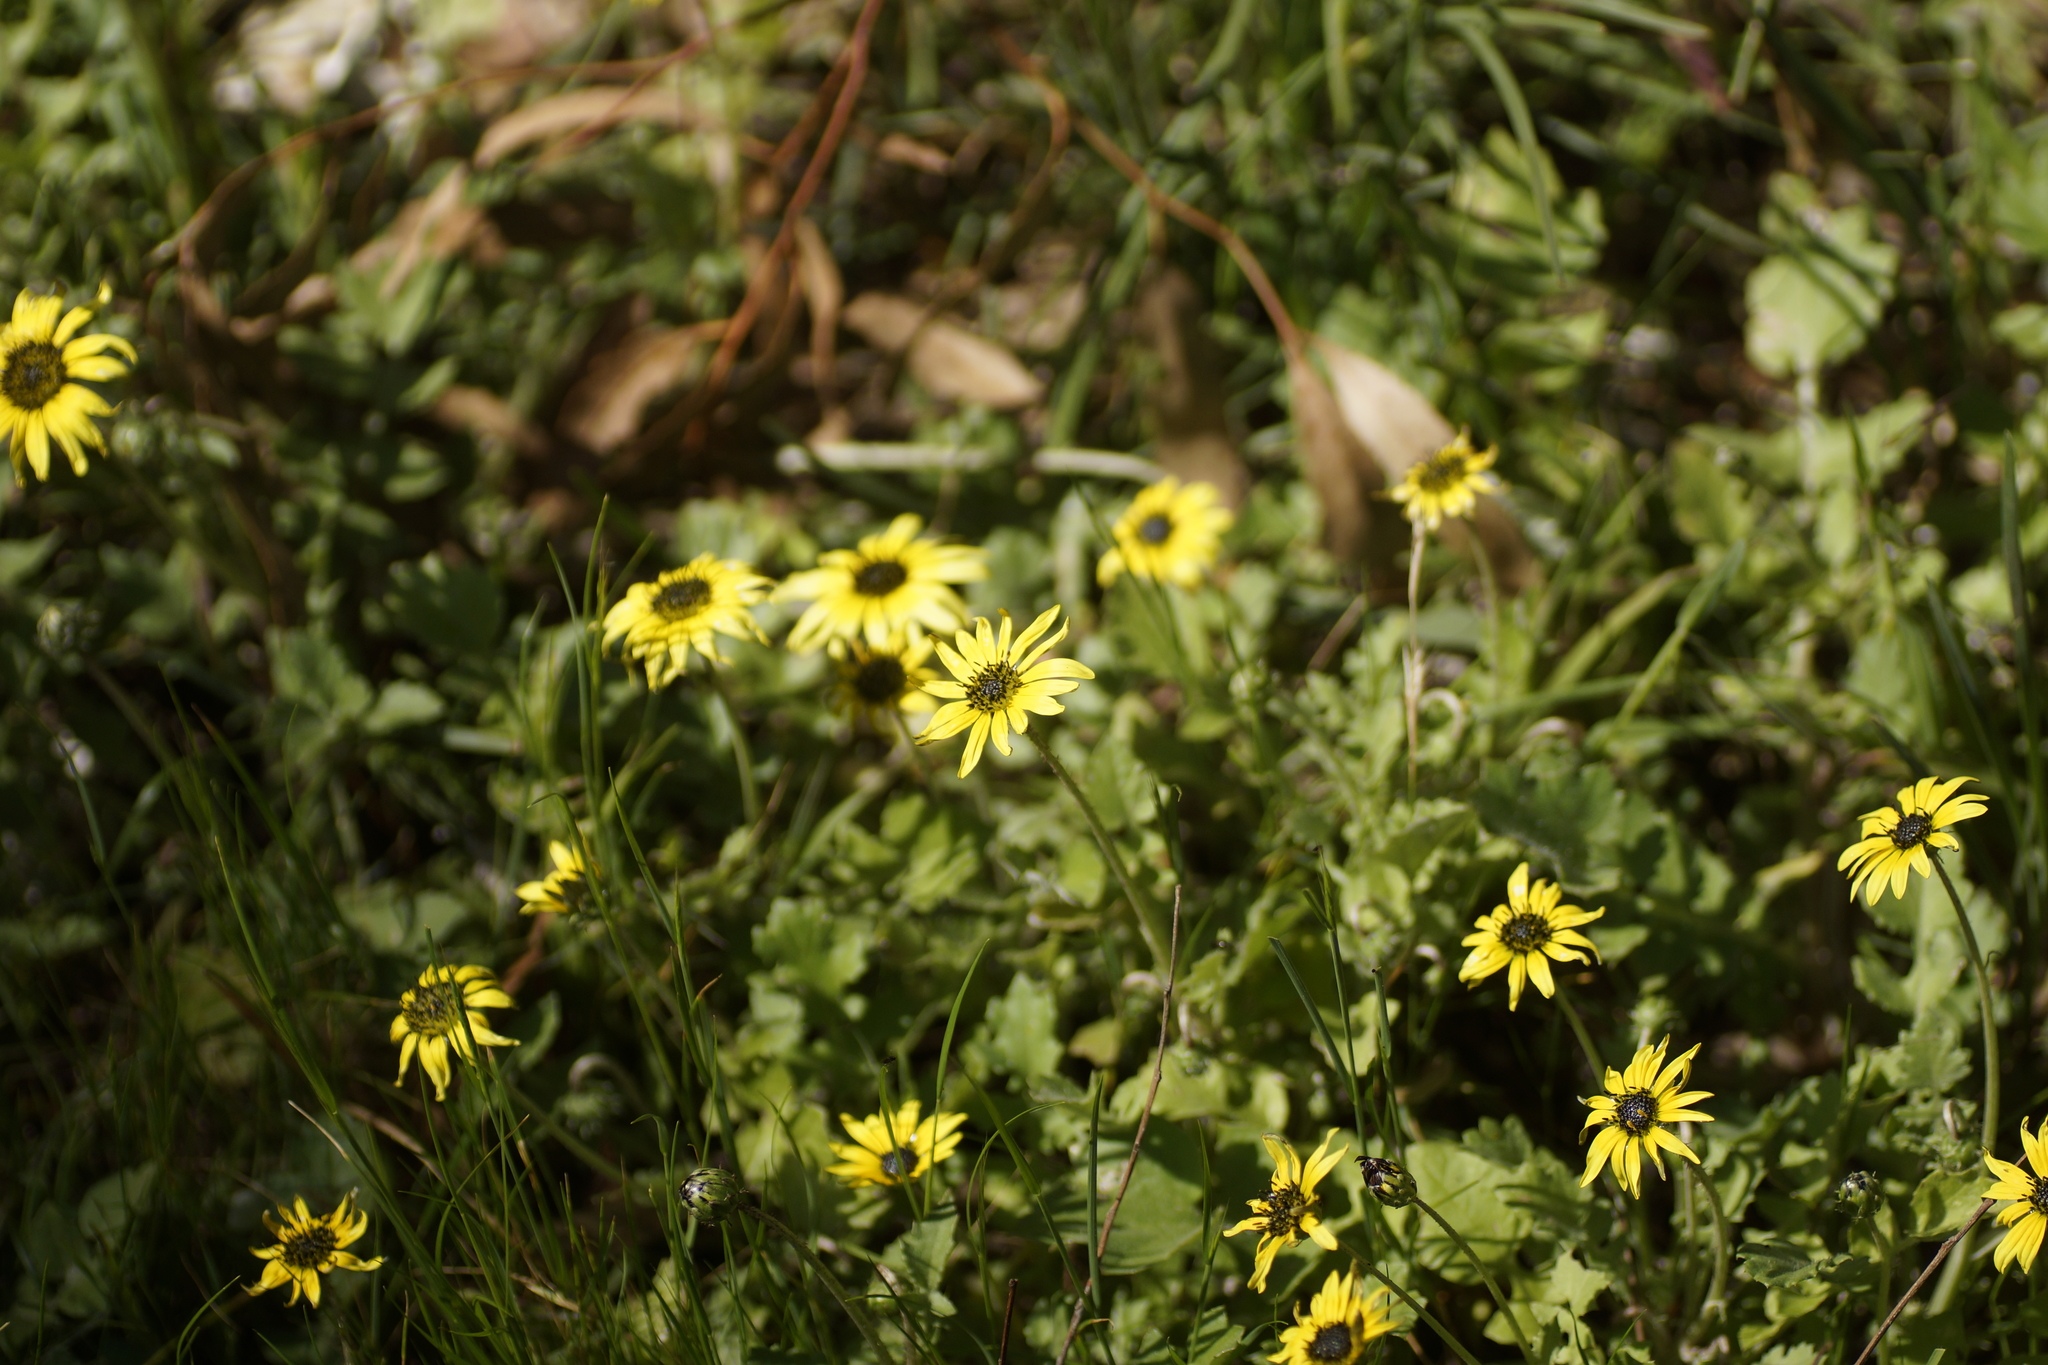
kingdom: Plantae
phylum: Tracheophyta
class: Magnoliopsida
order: Asterales
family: Asteraceae
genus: Arctotheca
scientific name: Arctotheca calendula
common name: Capeweed
